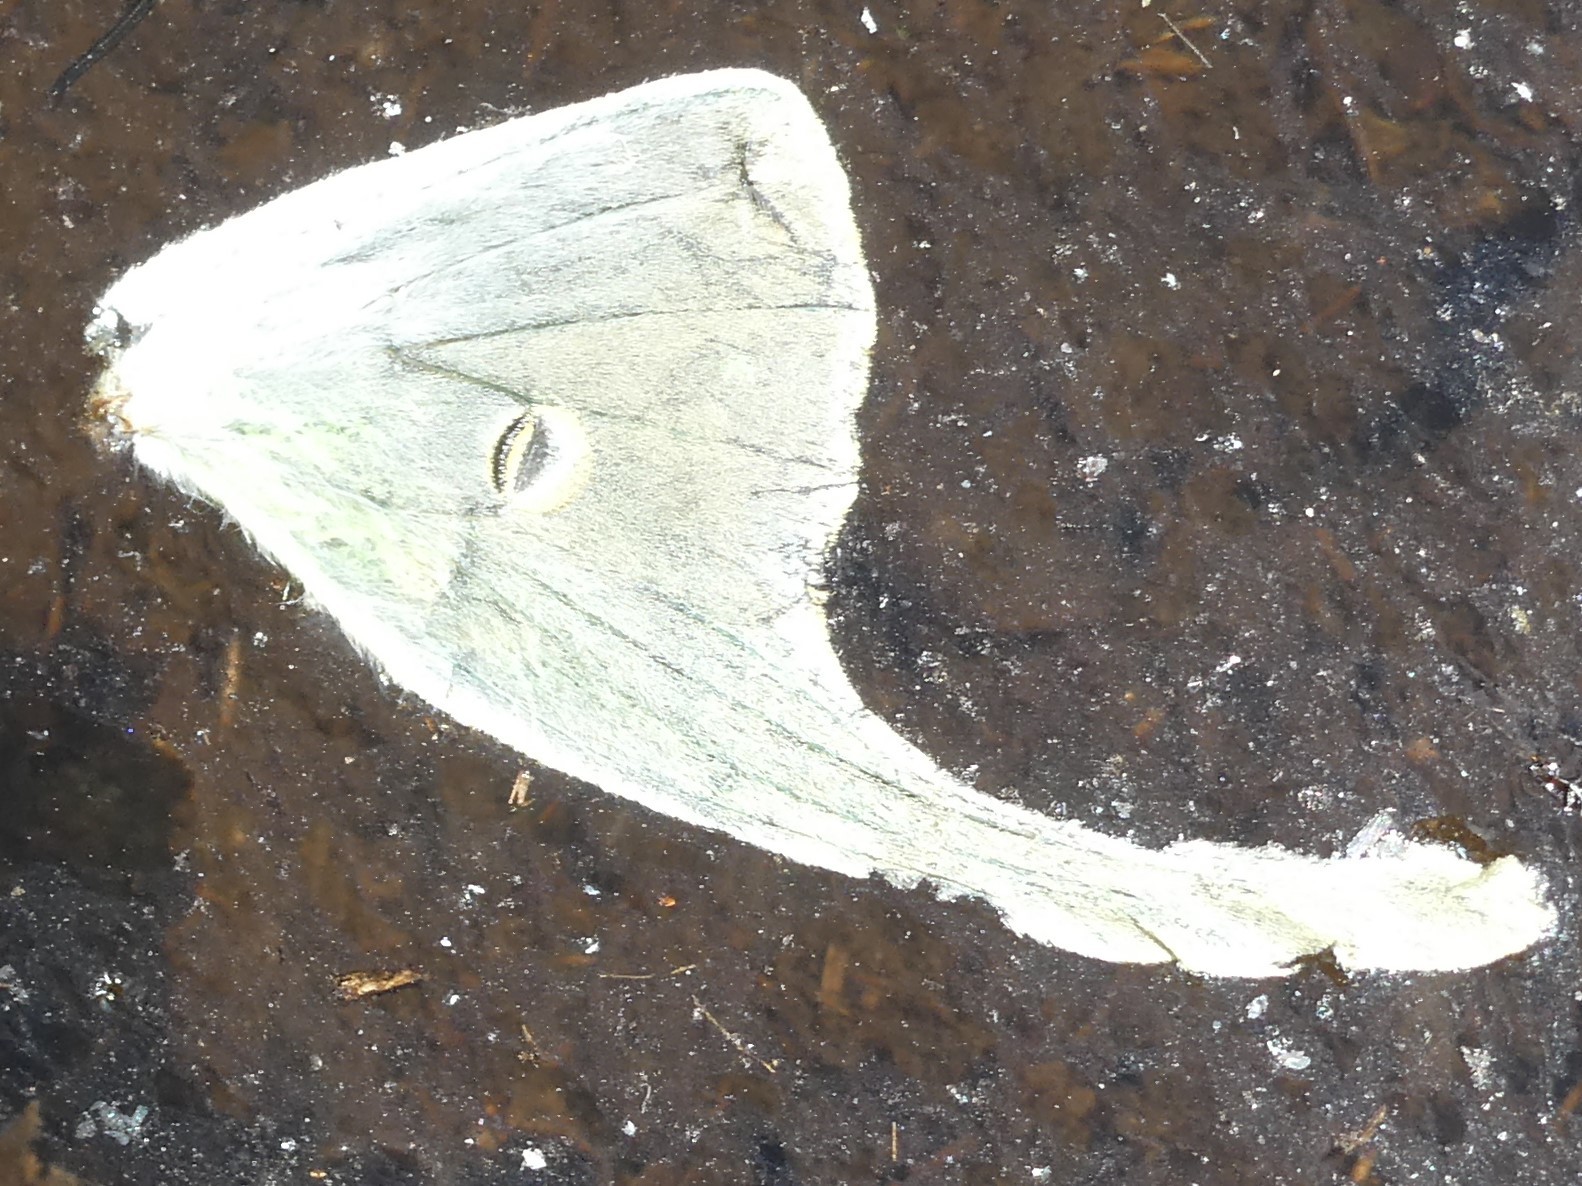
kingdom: Animalia
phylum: Arthropoda
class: Insecta
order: Lepidoptera
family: Saturniidae
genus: Actias
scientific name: Actias luna
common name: Luna moth
